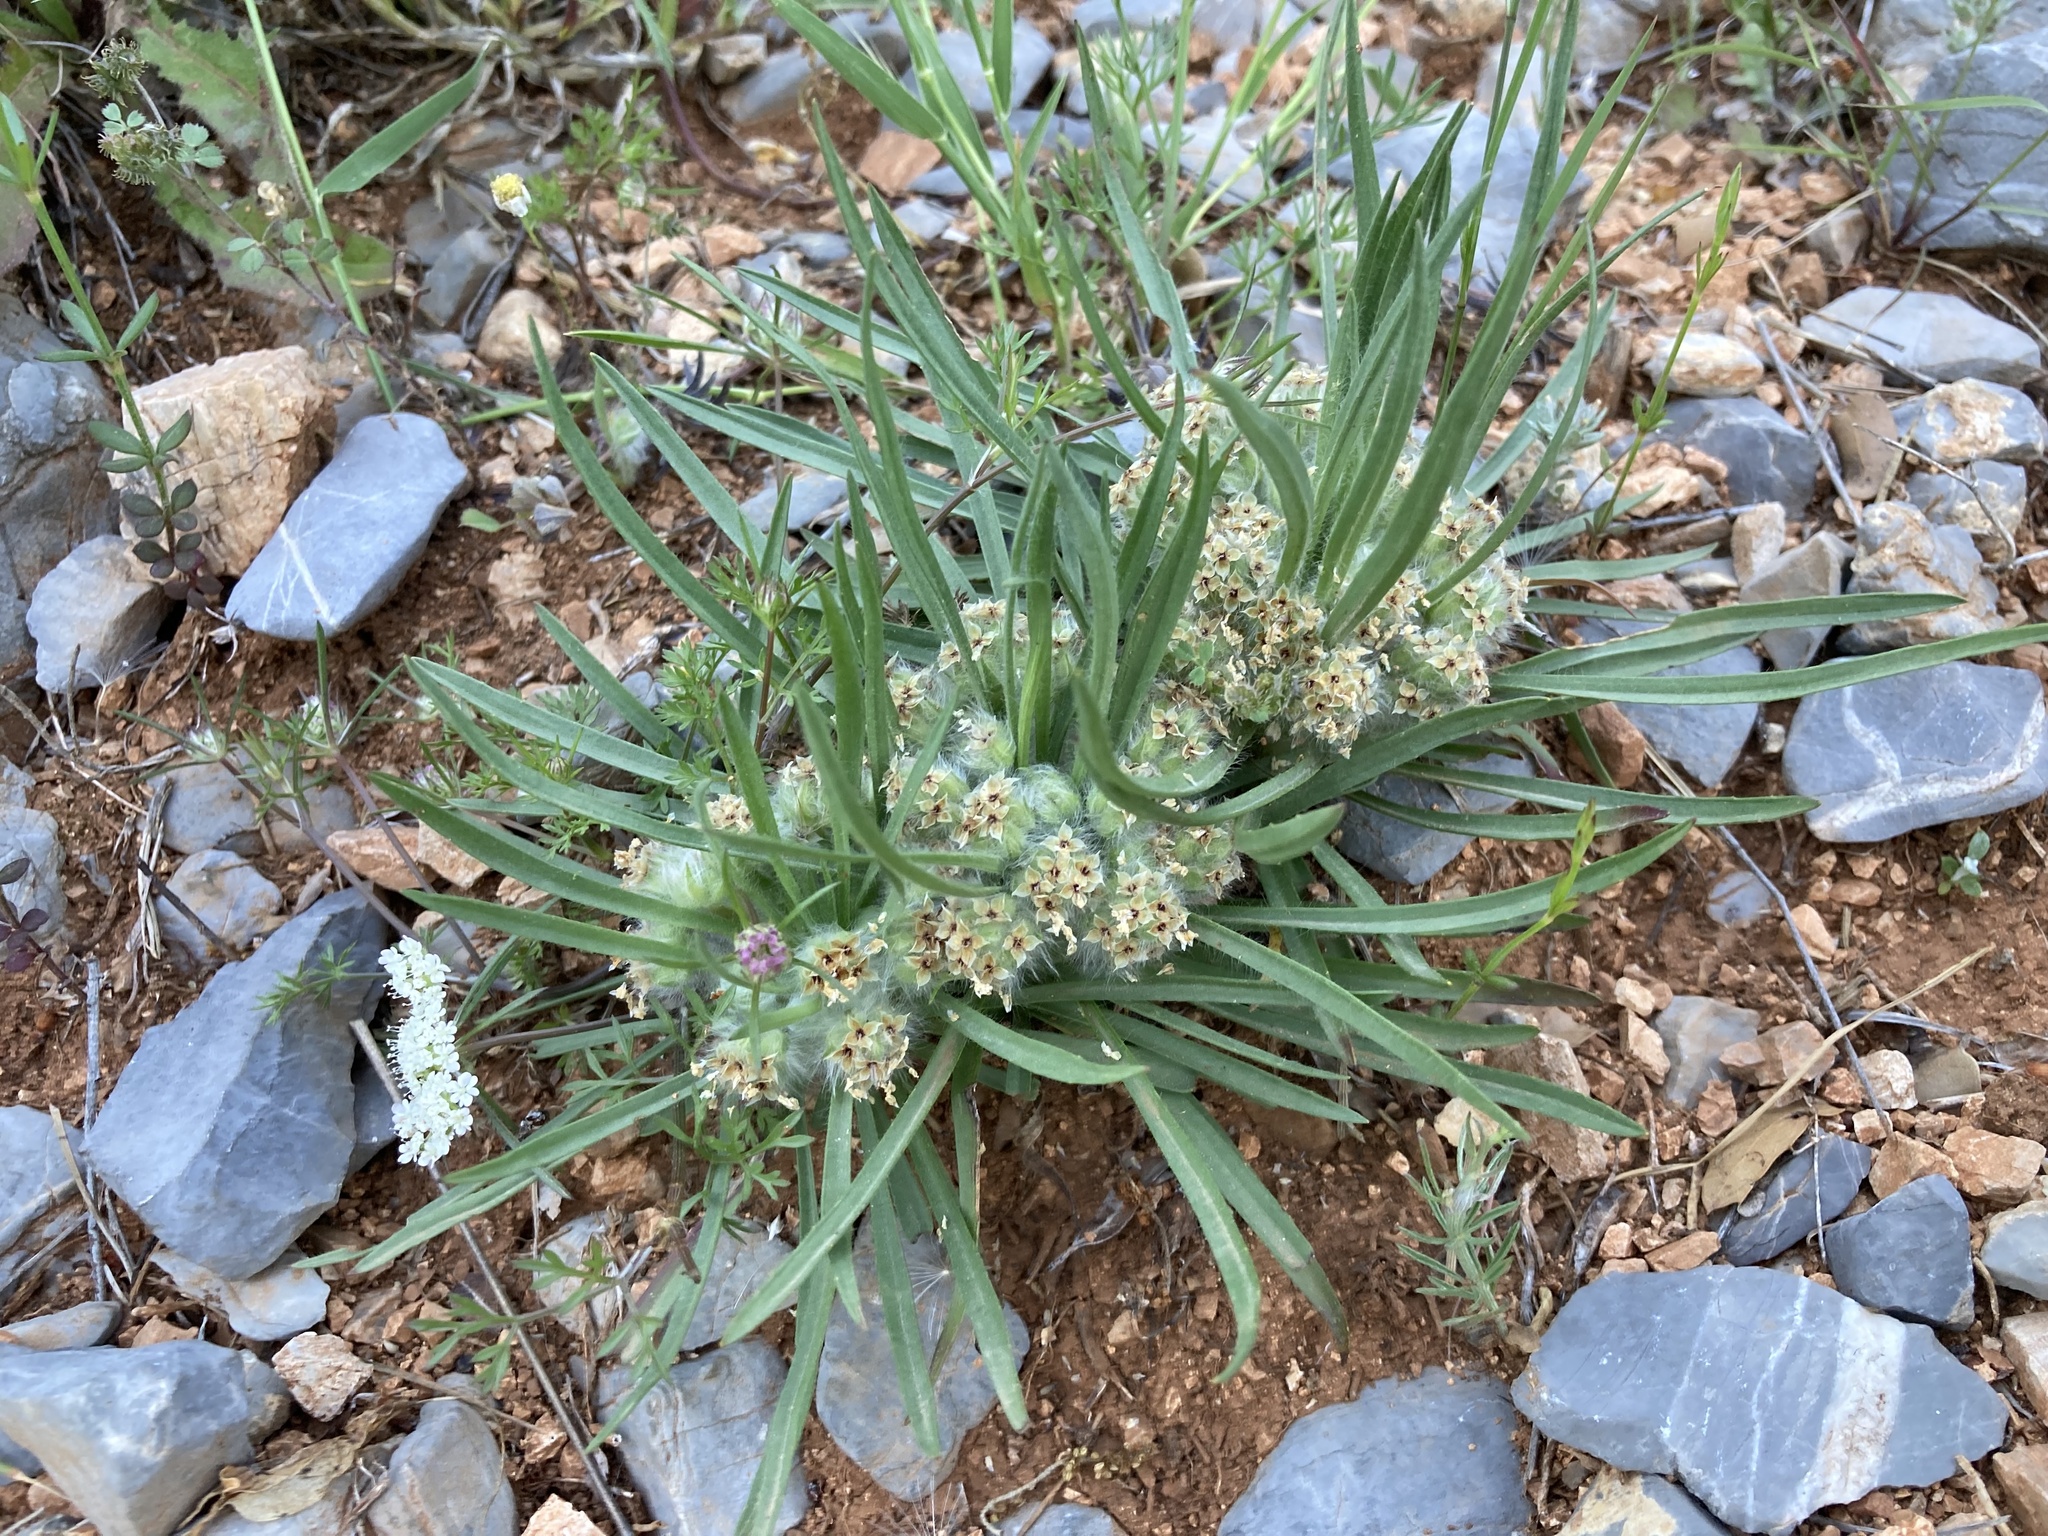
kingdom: Plantae
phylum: Tracheophyta
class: Magnoliopsida
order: Lamiales
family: Plantaginaceae
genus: Plantago
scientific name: Plantago cretica
